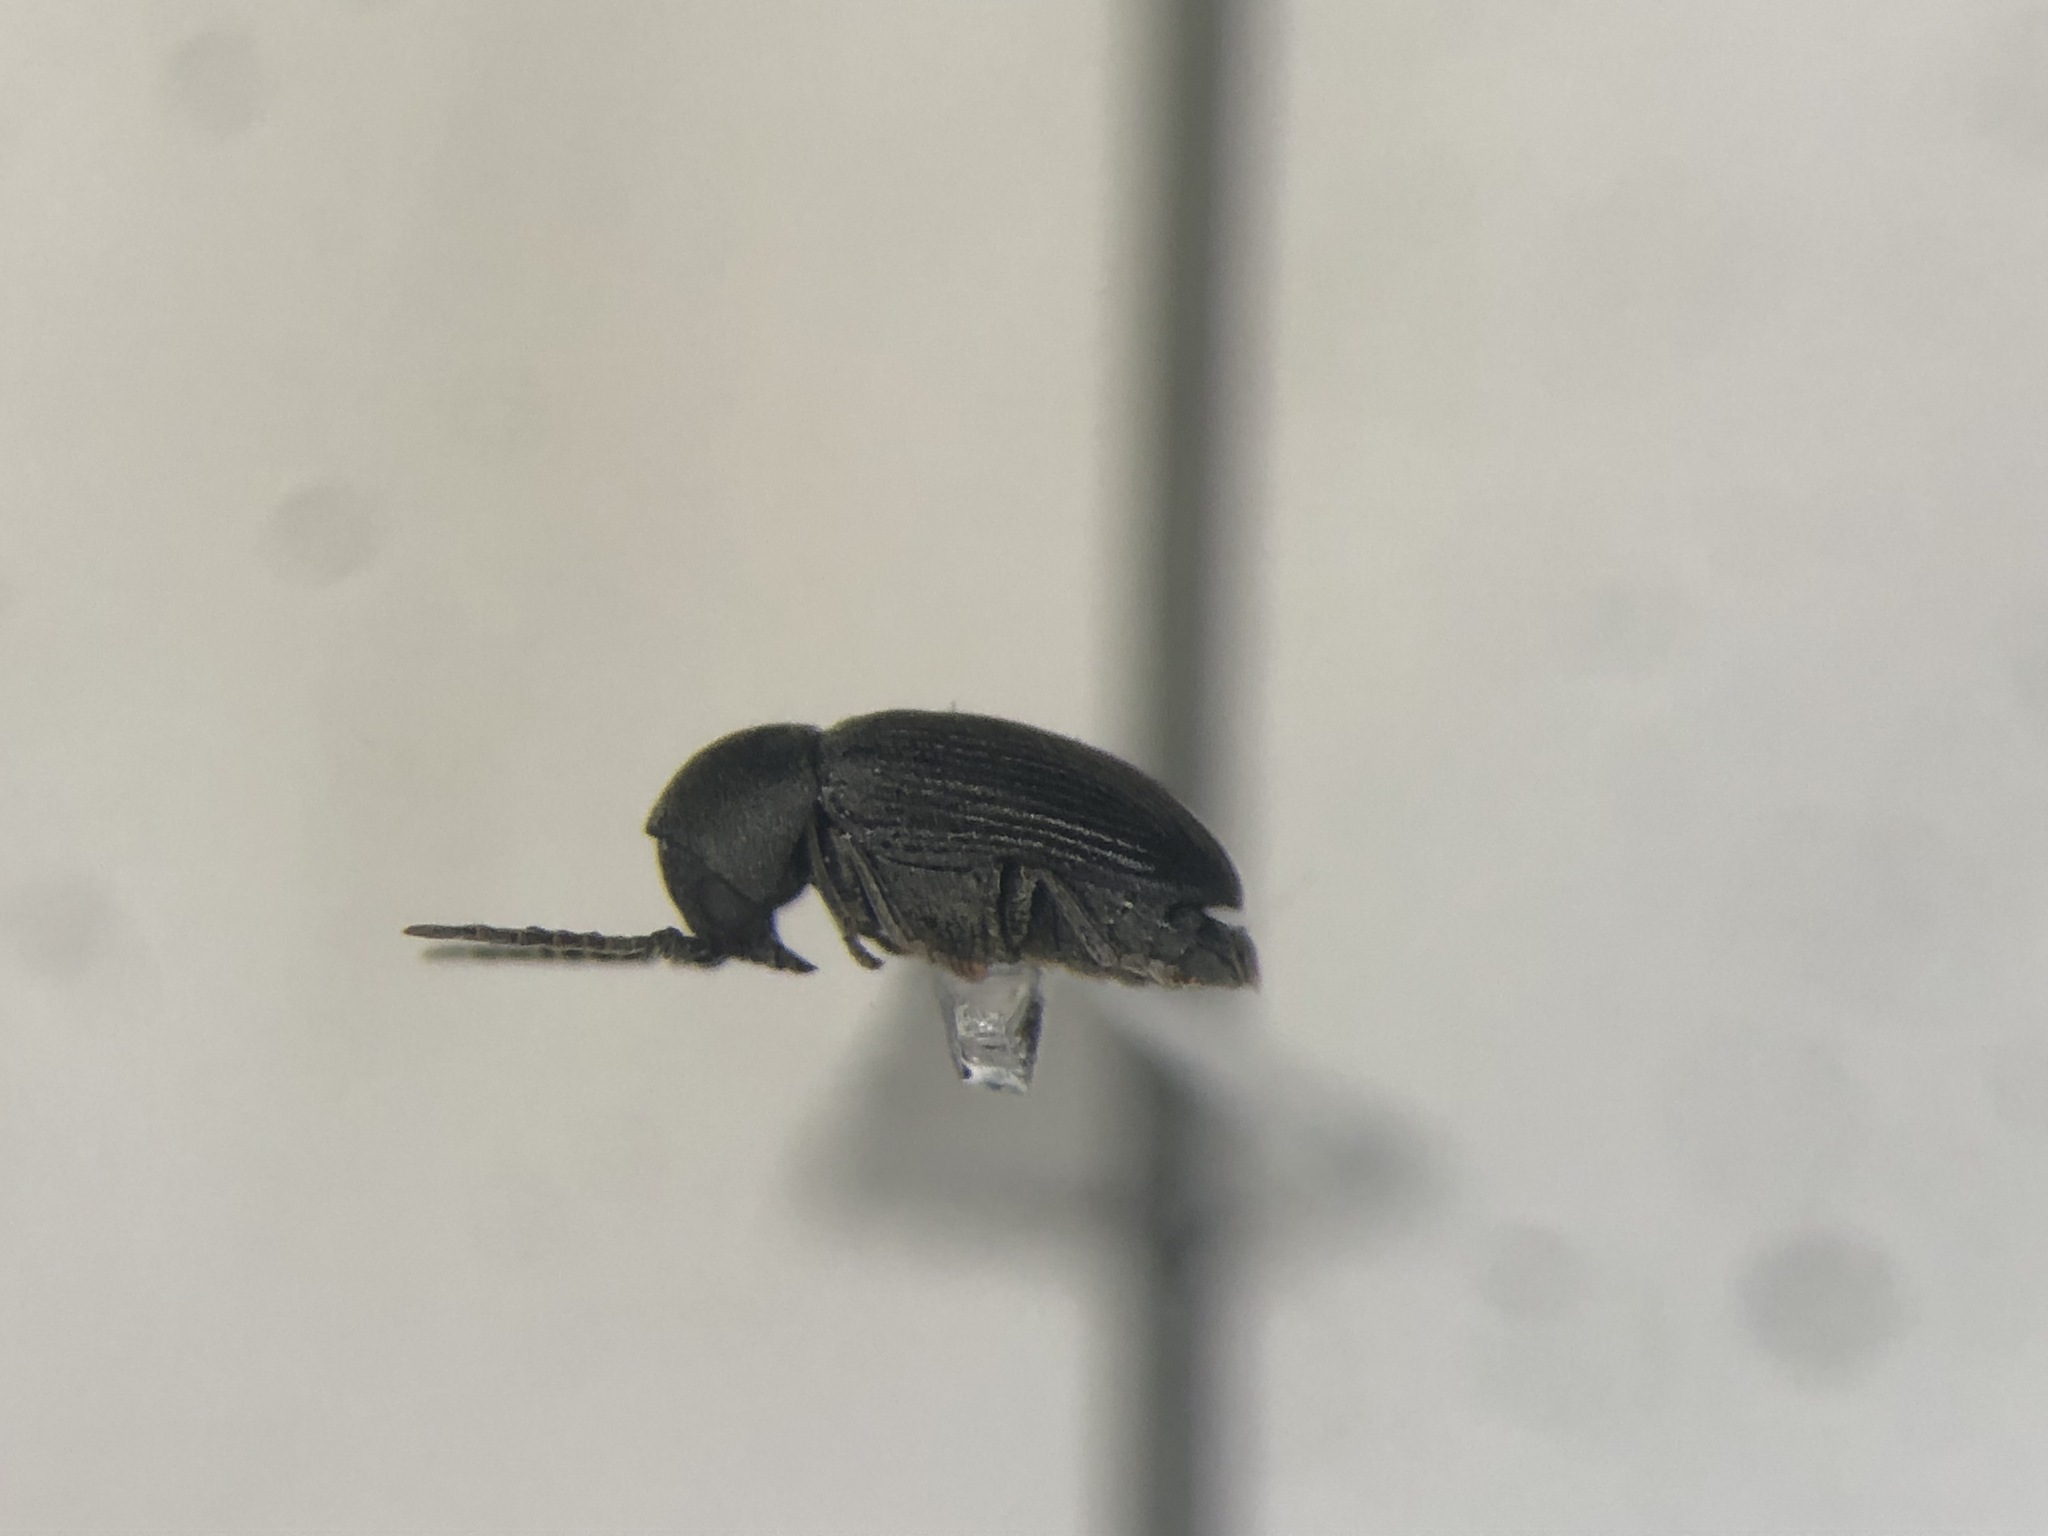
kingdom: Animalia
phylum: Arthropoda
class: Insecta
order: Coleoptera
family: Anobiidae
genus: Xyletinus
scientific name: Xyletinus lugubris
